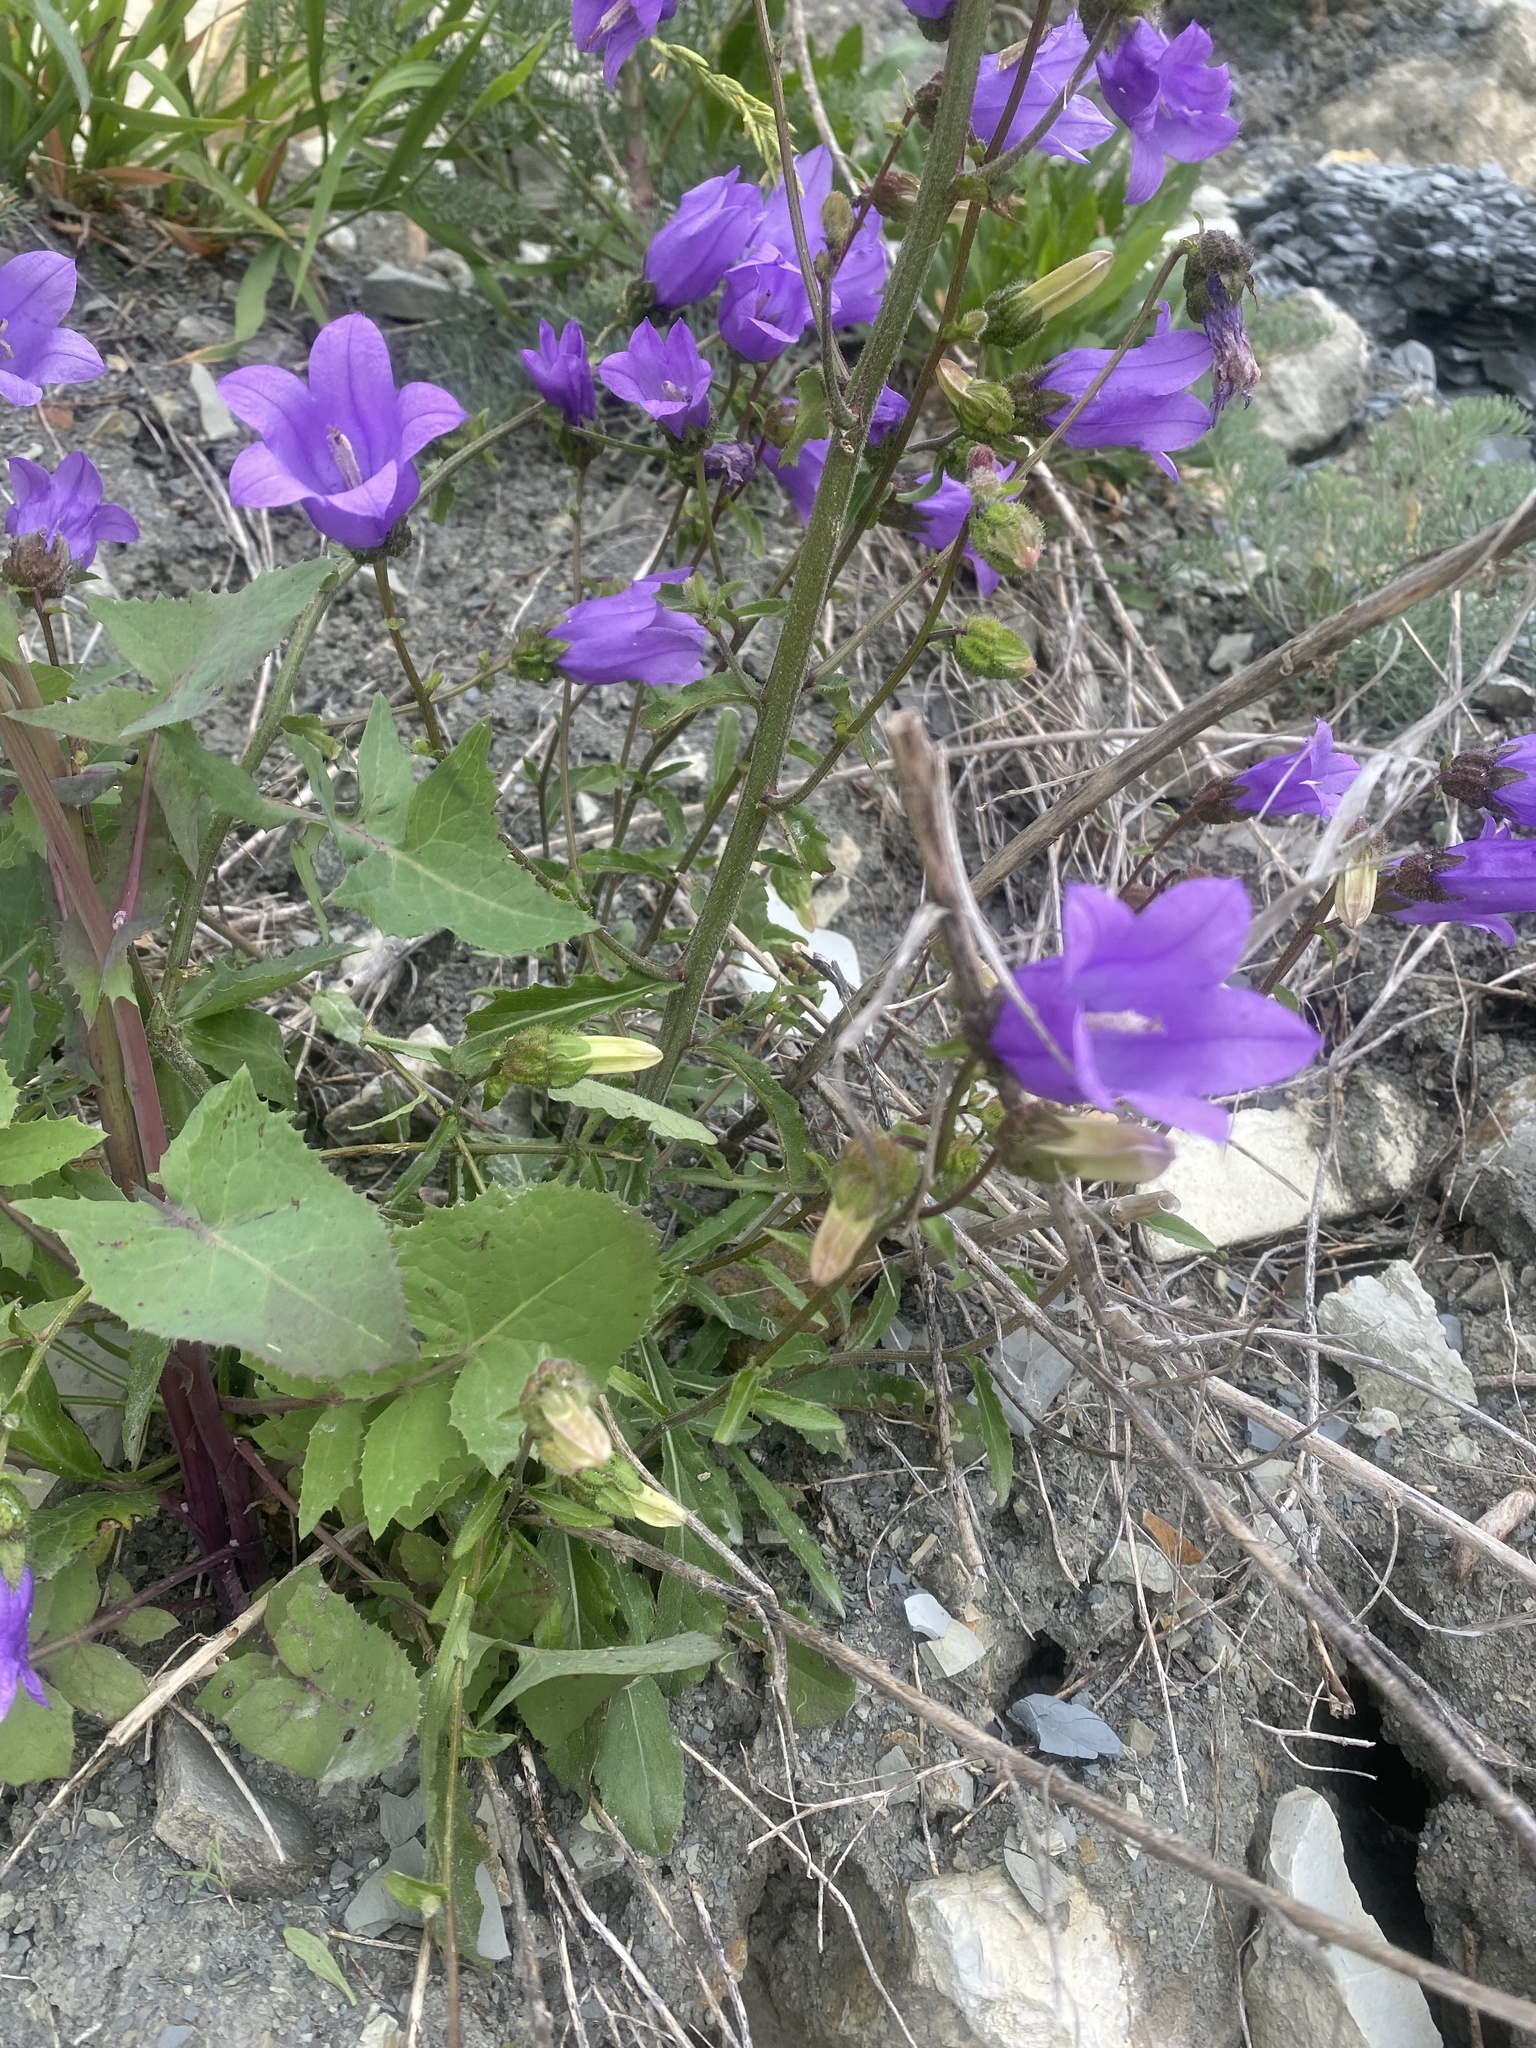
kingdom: Plantae
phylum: Tracheophyta
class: Magnoliopsida
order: Asterales
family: Campanulaceae
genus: Campanula
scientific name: Campanula komarovii
